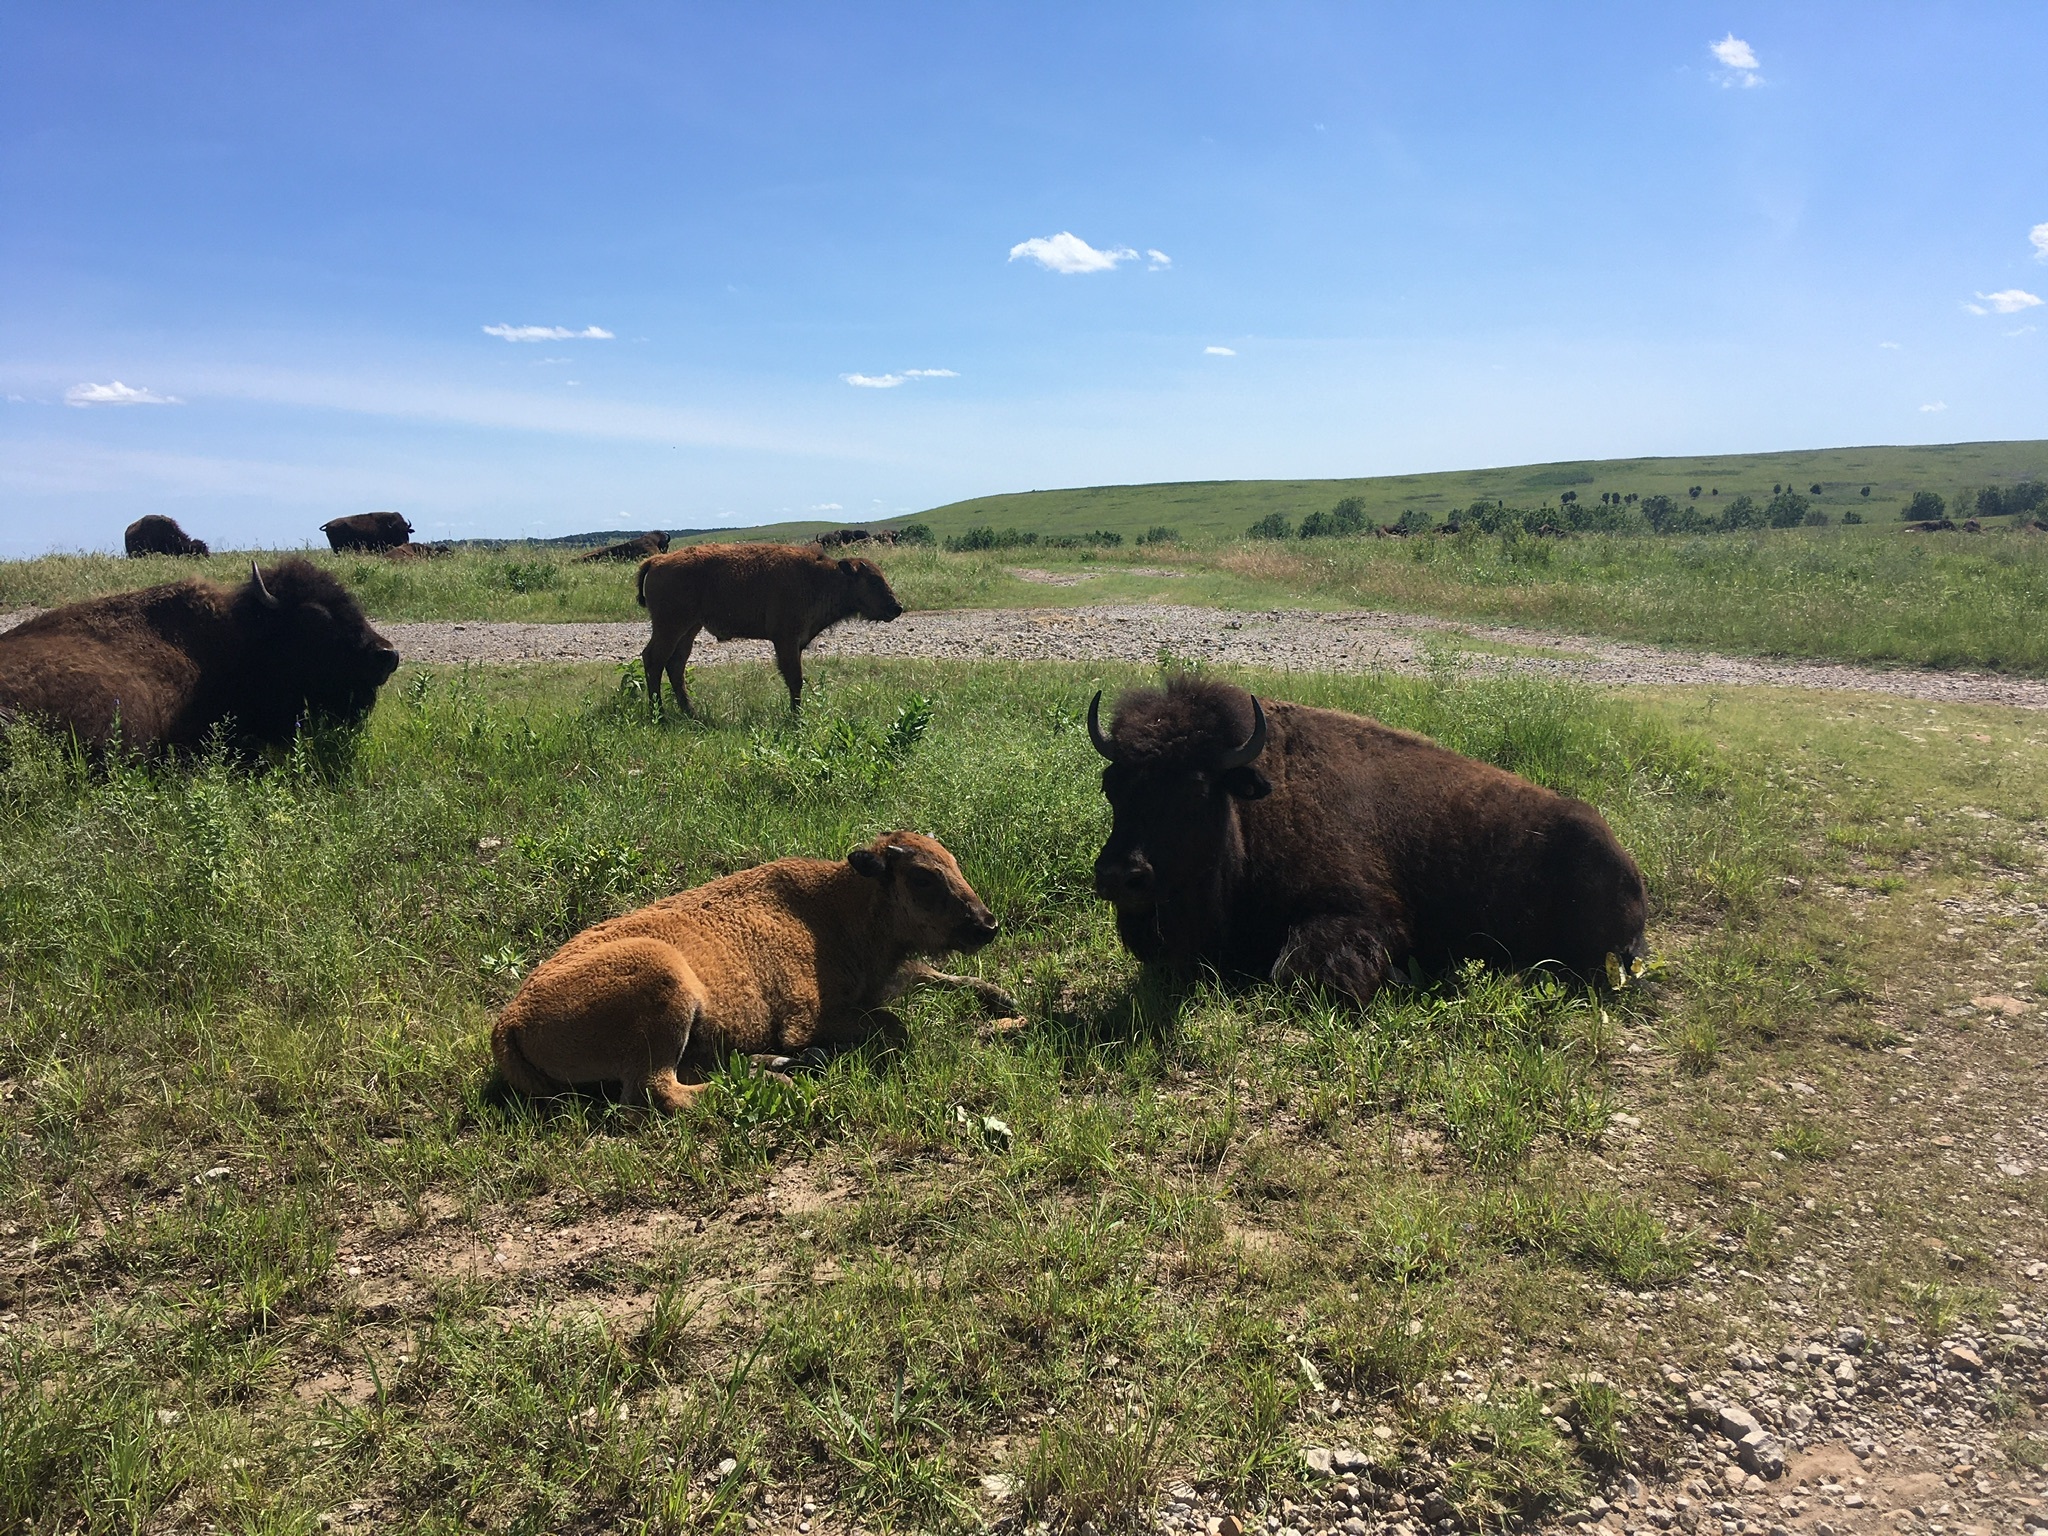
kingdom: Animalia
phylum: Chordata
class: Mammalia
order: Artiodactyla
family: Bovidae
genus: Bison
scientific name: Bison bison
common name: American bison
